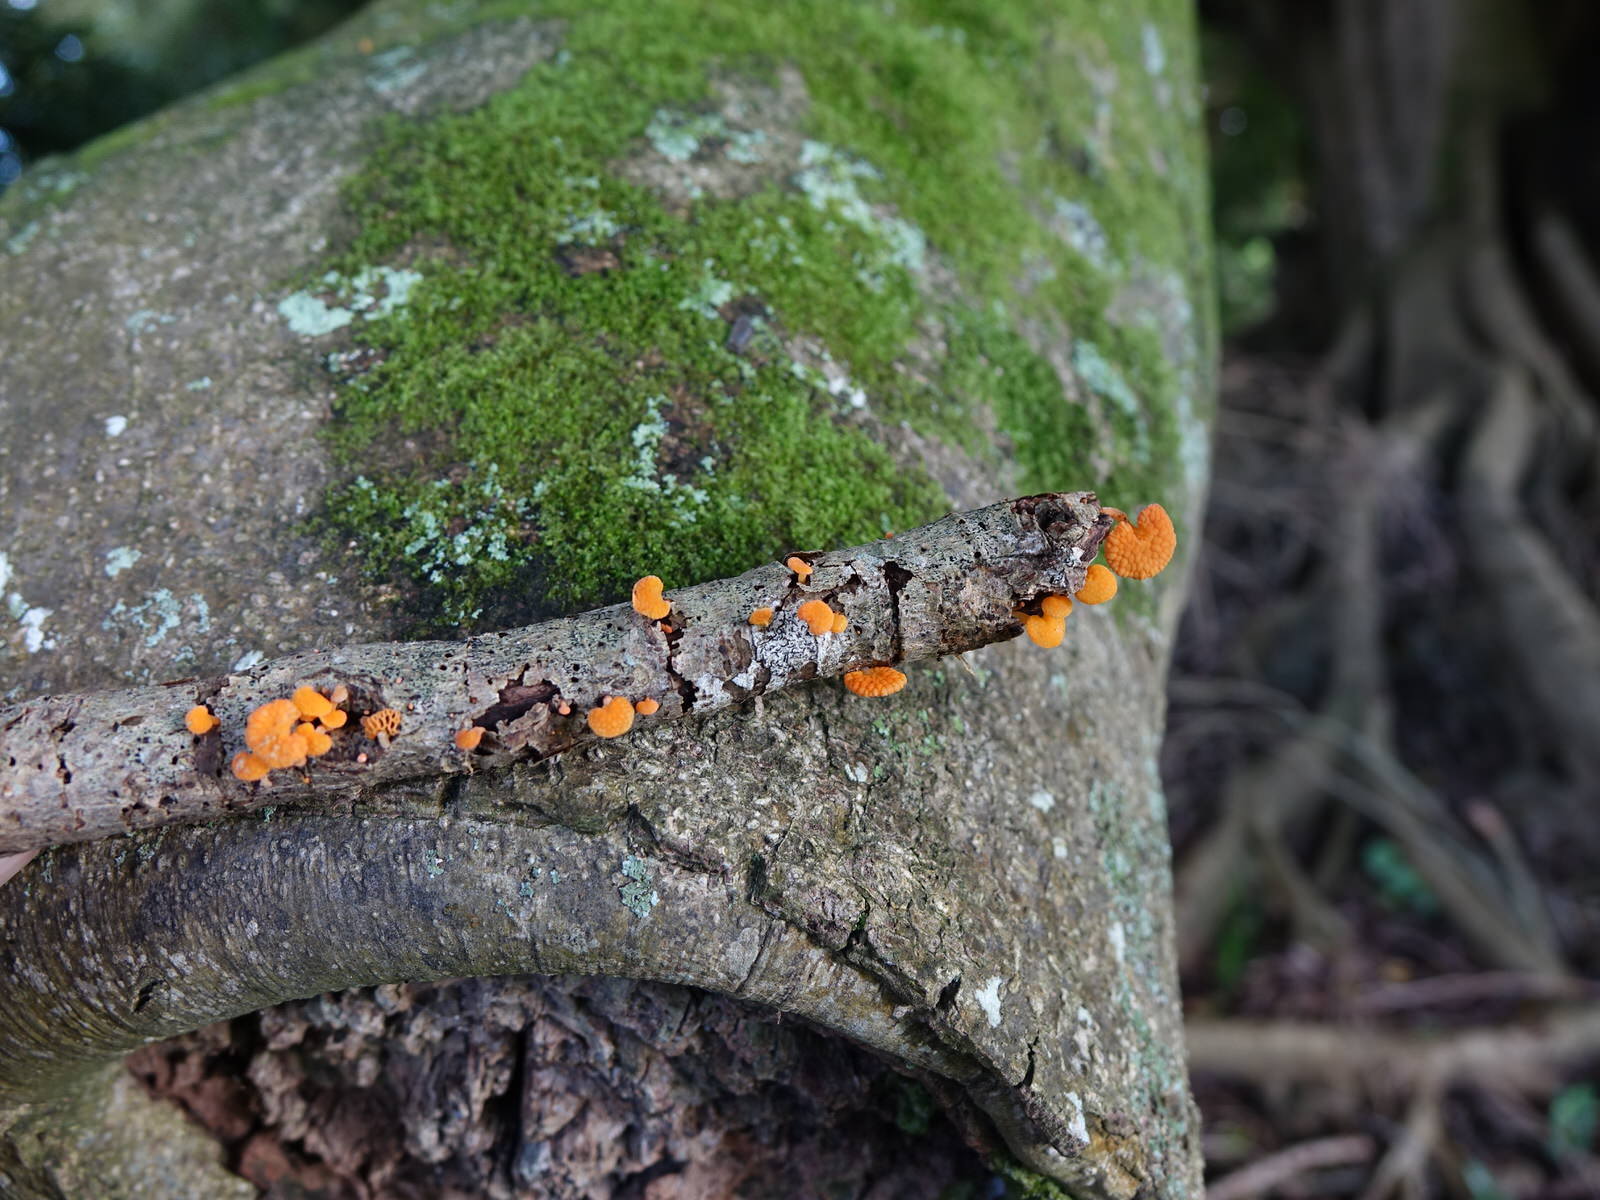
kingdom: Fungi
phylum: Basidiomycota
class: Agaricomycetes
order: Agaricales
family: Mycenaceae
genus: Favolaschia
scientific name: Favolaschia claudopus
